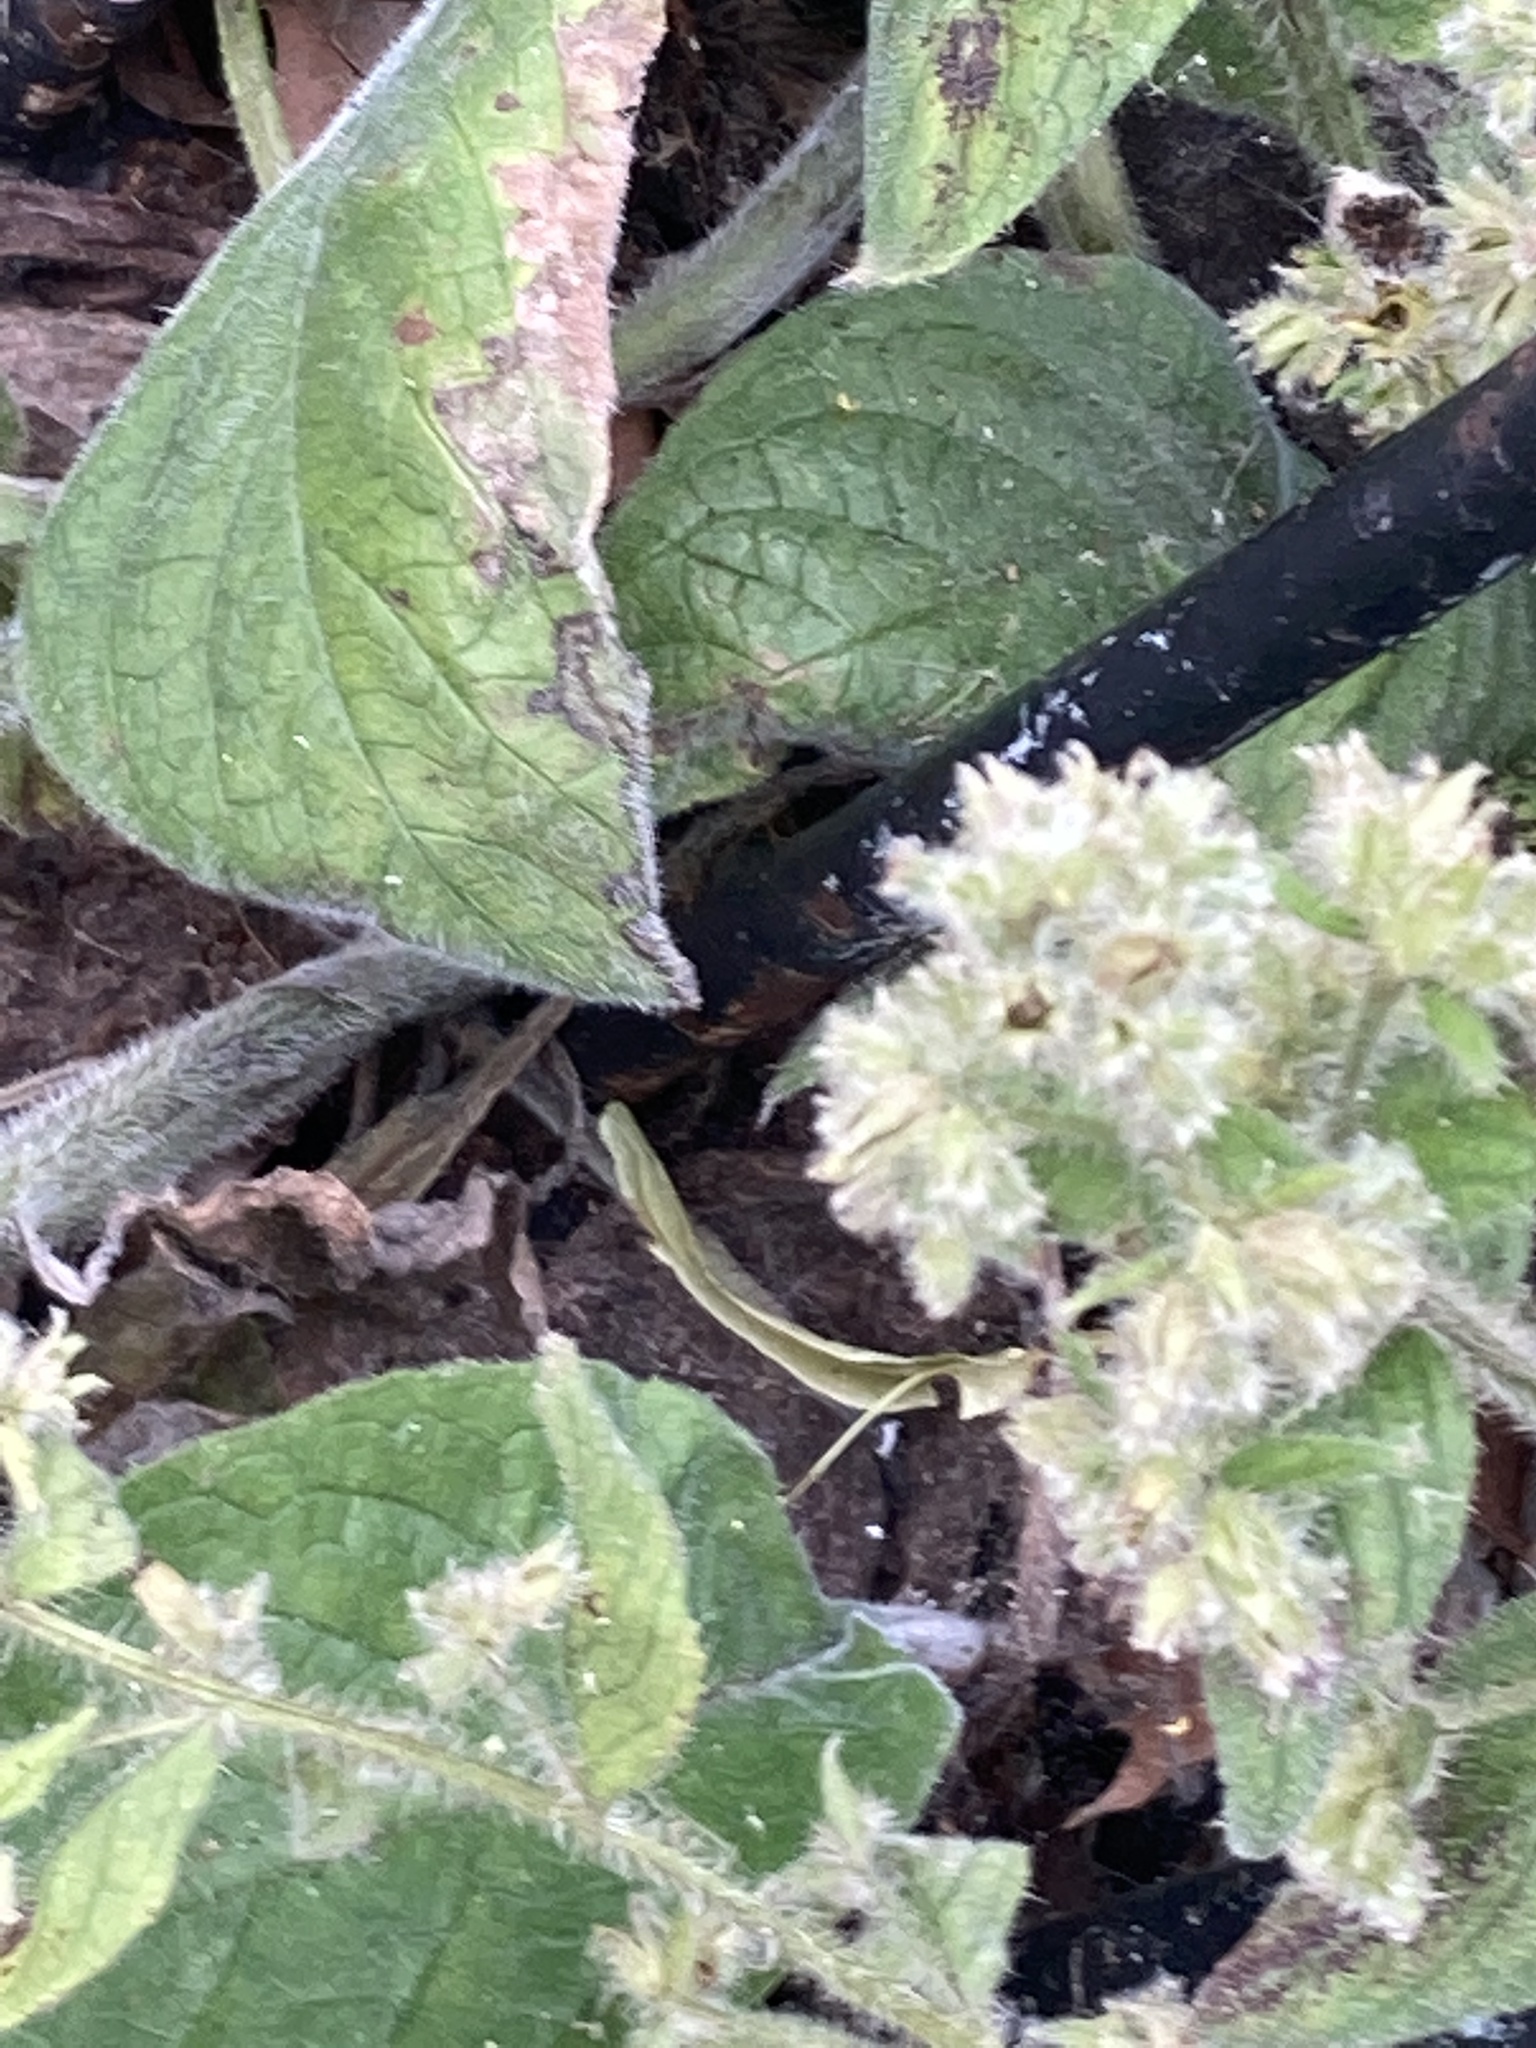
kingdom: Plantae
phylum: Tracheophyta
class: Magnoliopsida
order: Boraginales
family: Boraginaceae
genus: Pentaglottis
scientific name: Pentaglottis sempervirens
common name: Green alkanet
